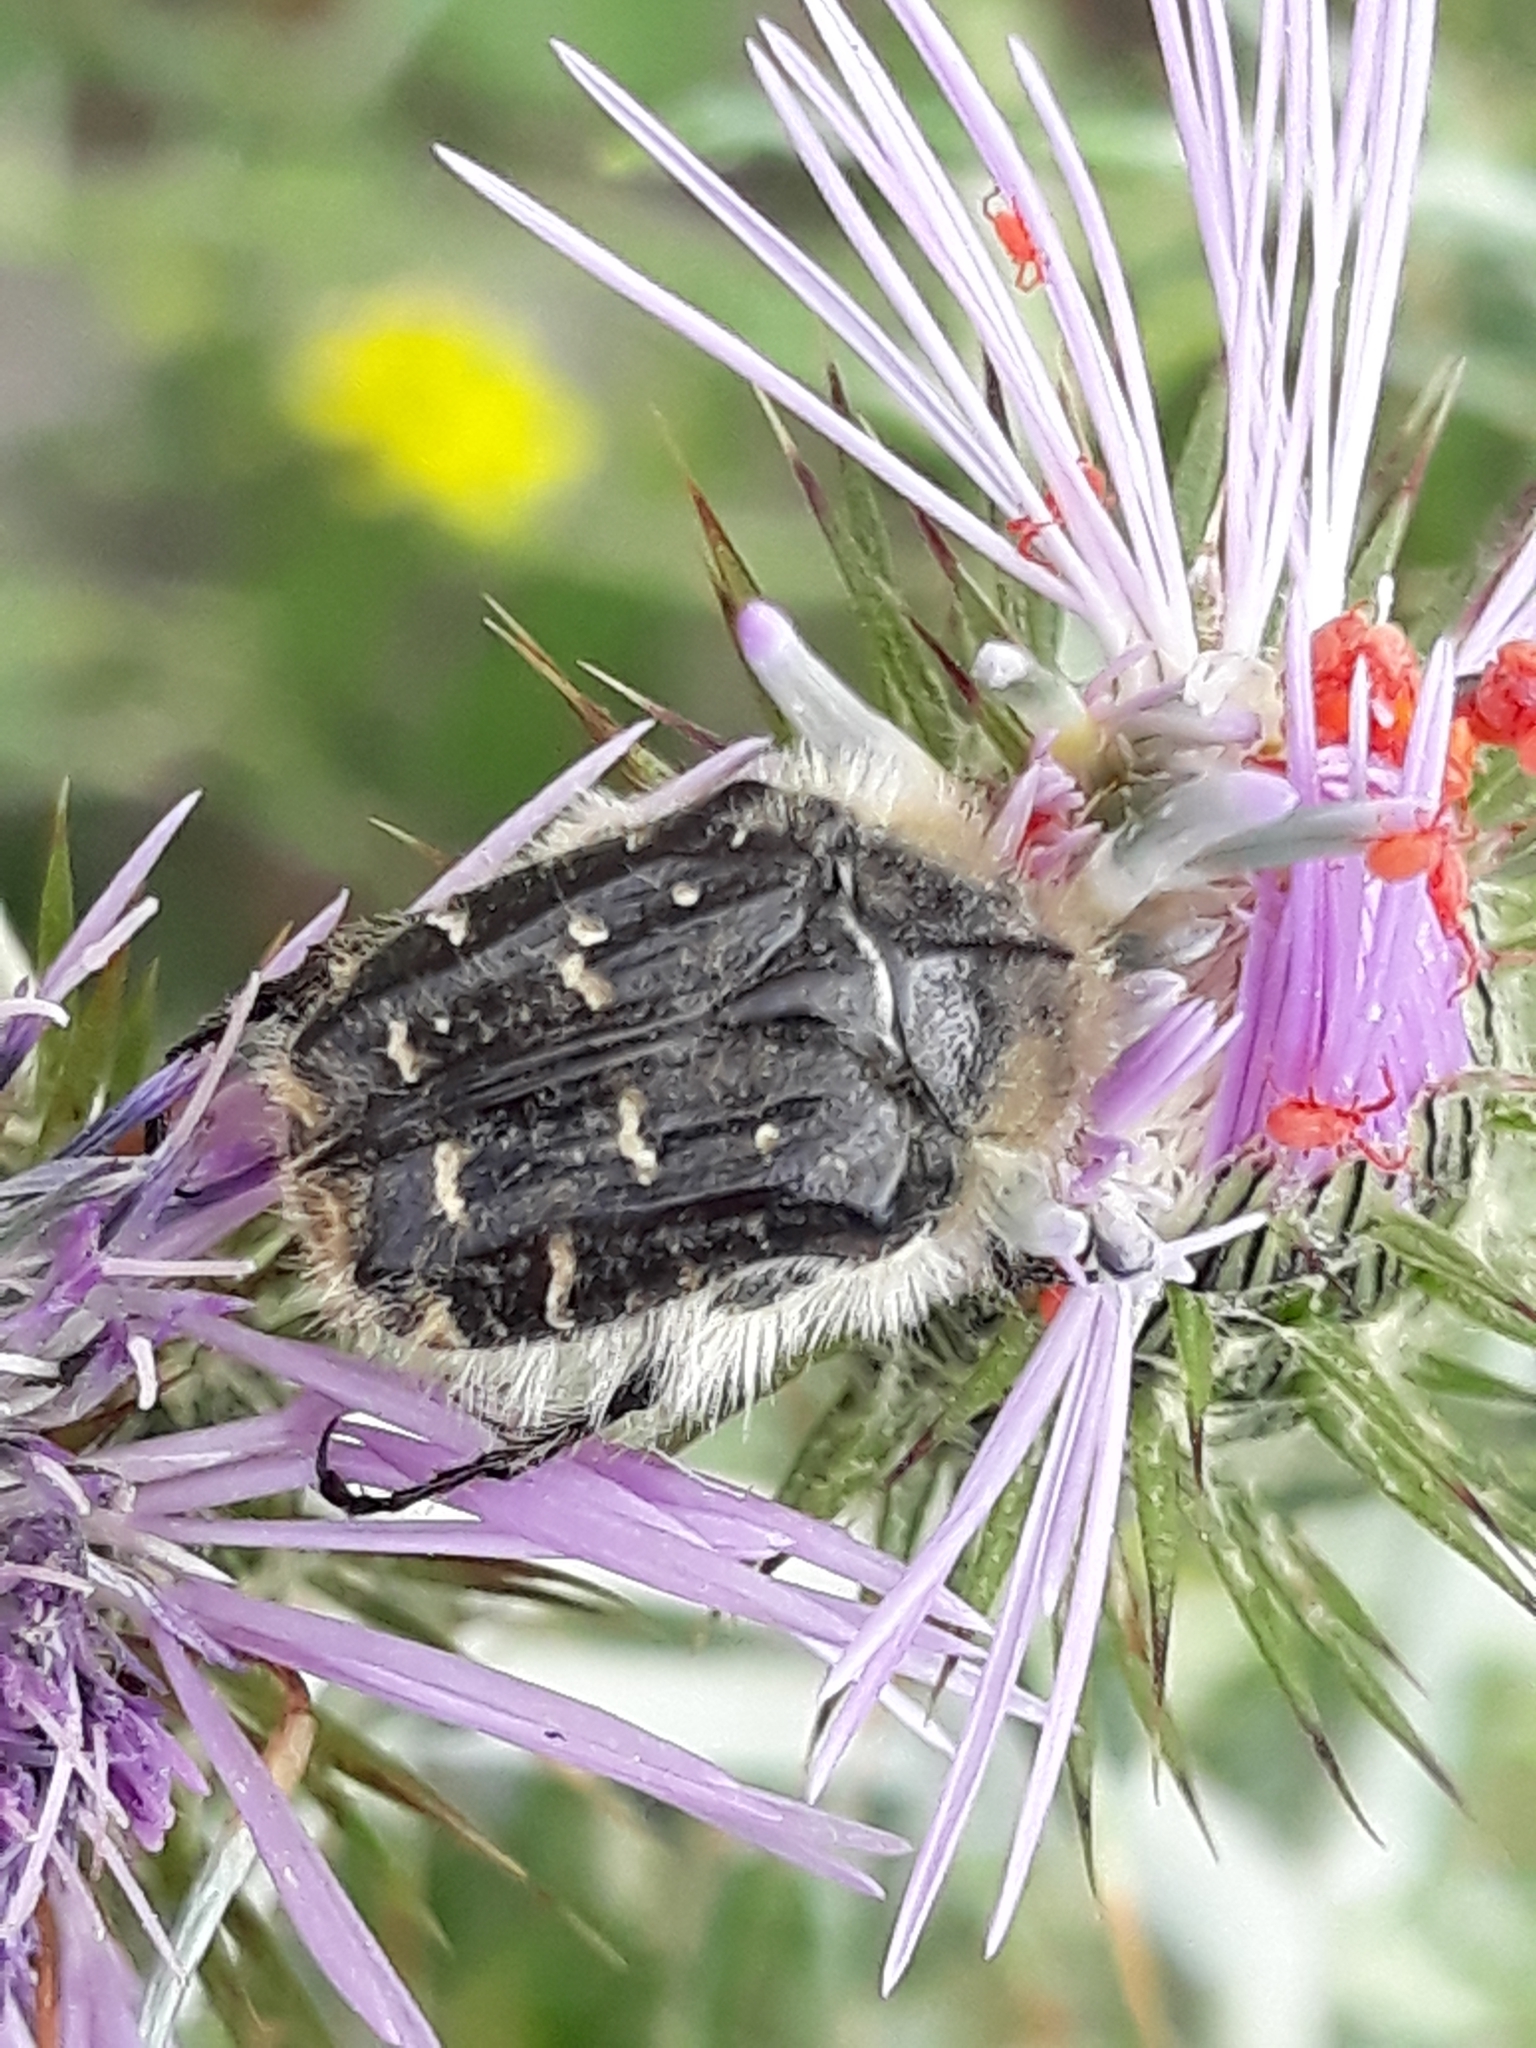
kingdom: Animalia
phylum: Arthropoda
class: Insecta
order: Coleoptera
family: Scarabaeidae
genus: Tropinota
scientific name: Tropinota squalida
